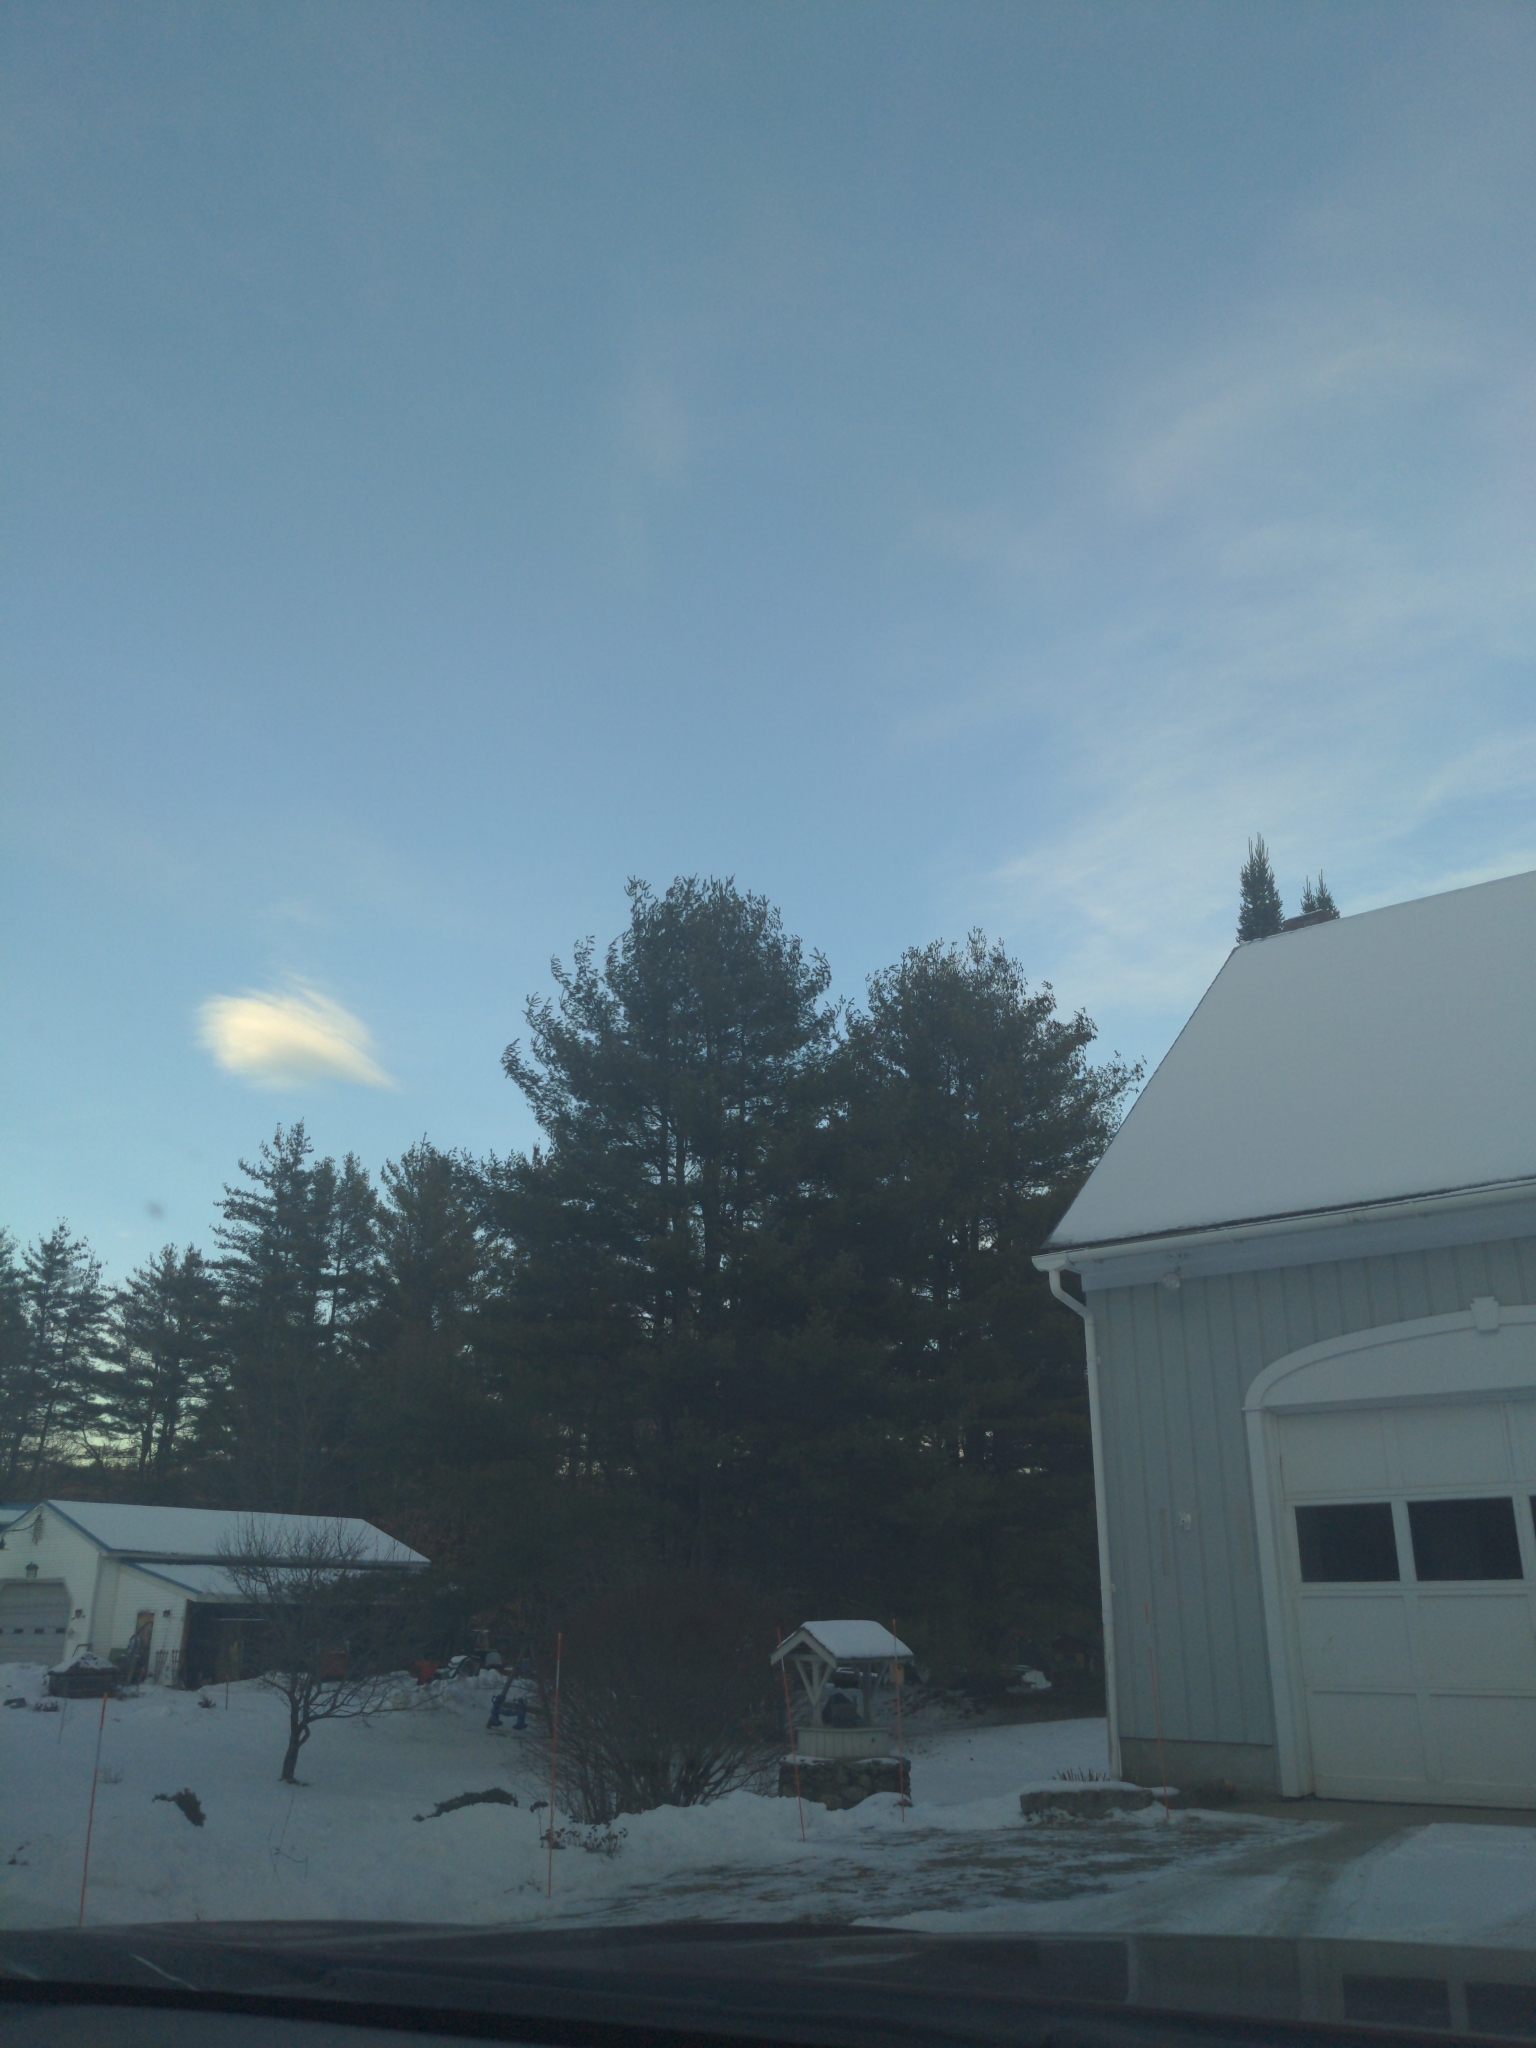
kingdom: Plantae
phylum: Tracheophyta
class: Pinopsida
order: Pinales
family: Pinaceae
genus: Pinus
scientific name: Pinus strobus
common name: Weymouth pine
